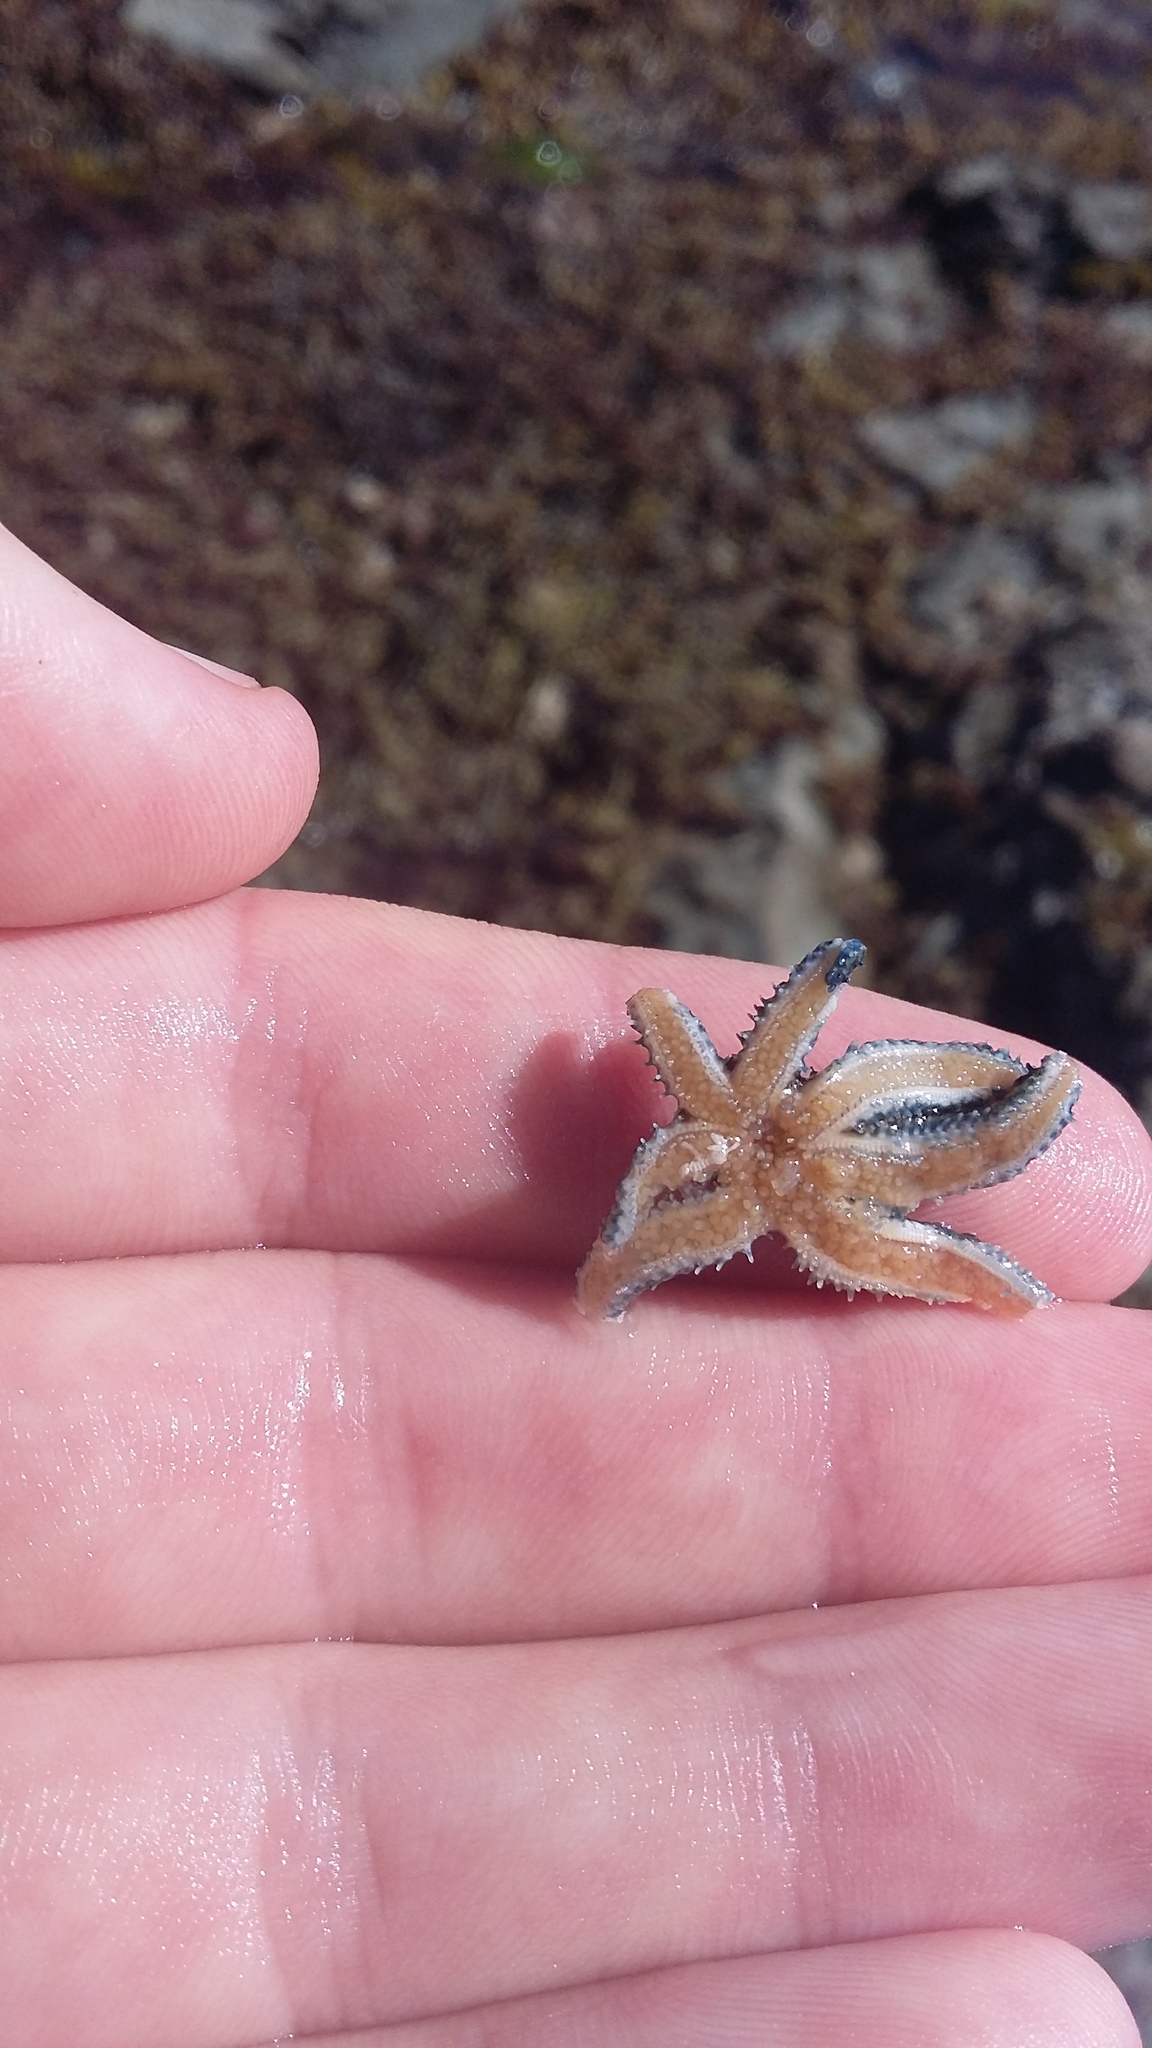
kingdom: Animalia
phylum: Echinodermata
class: Asteroidea
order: Forcipulatida
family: Asteriidae
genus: Coscinasterias
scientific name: Coscinasterias muricata
